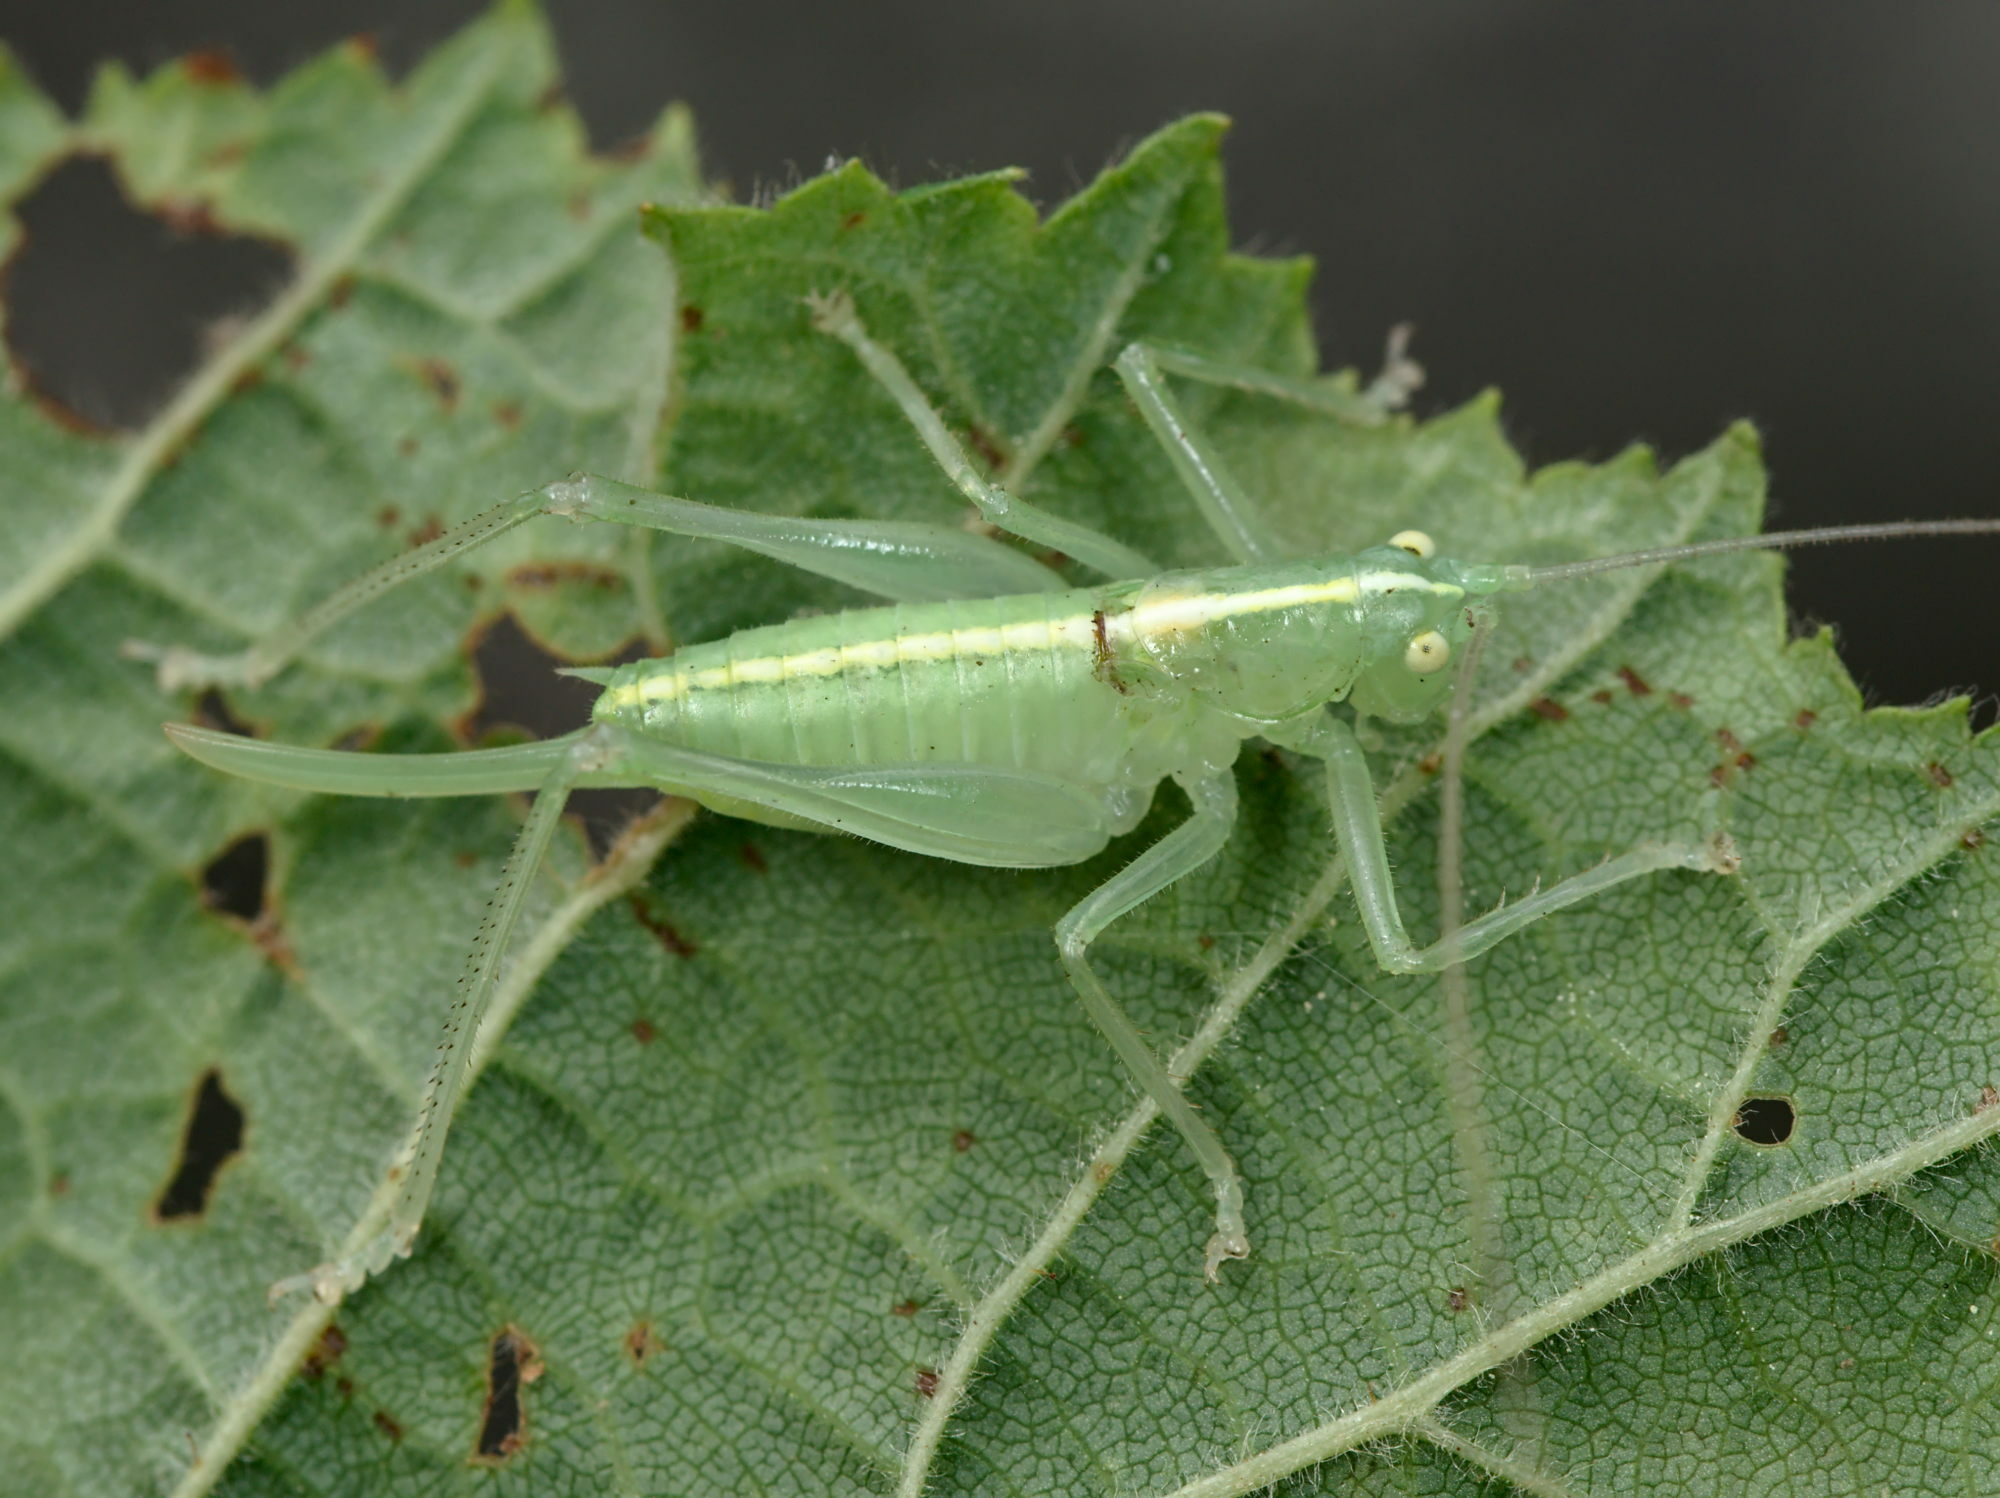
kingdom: Animalia
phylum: Arthropoda
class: Insecta
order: Orthoptera
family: Tettigoniidae
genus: Meconema
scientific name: Meconema meridionale
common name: Southern oak bush-cricket
